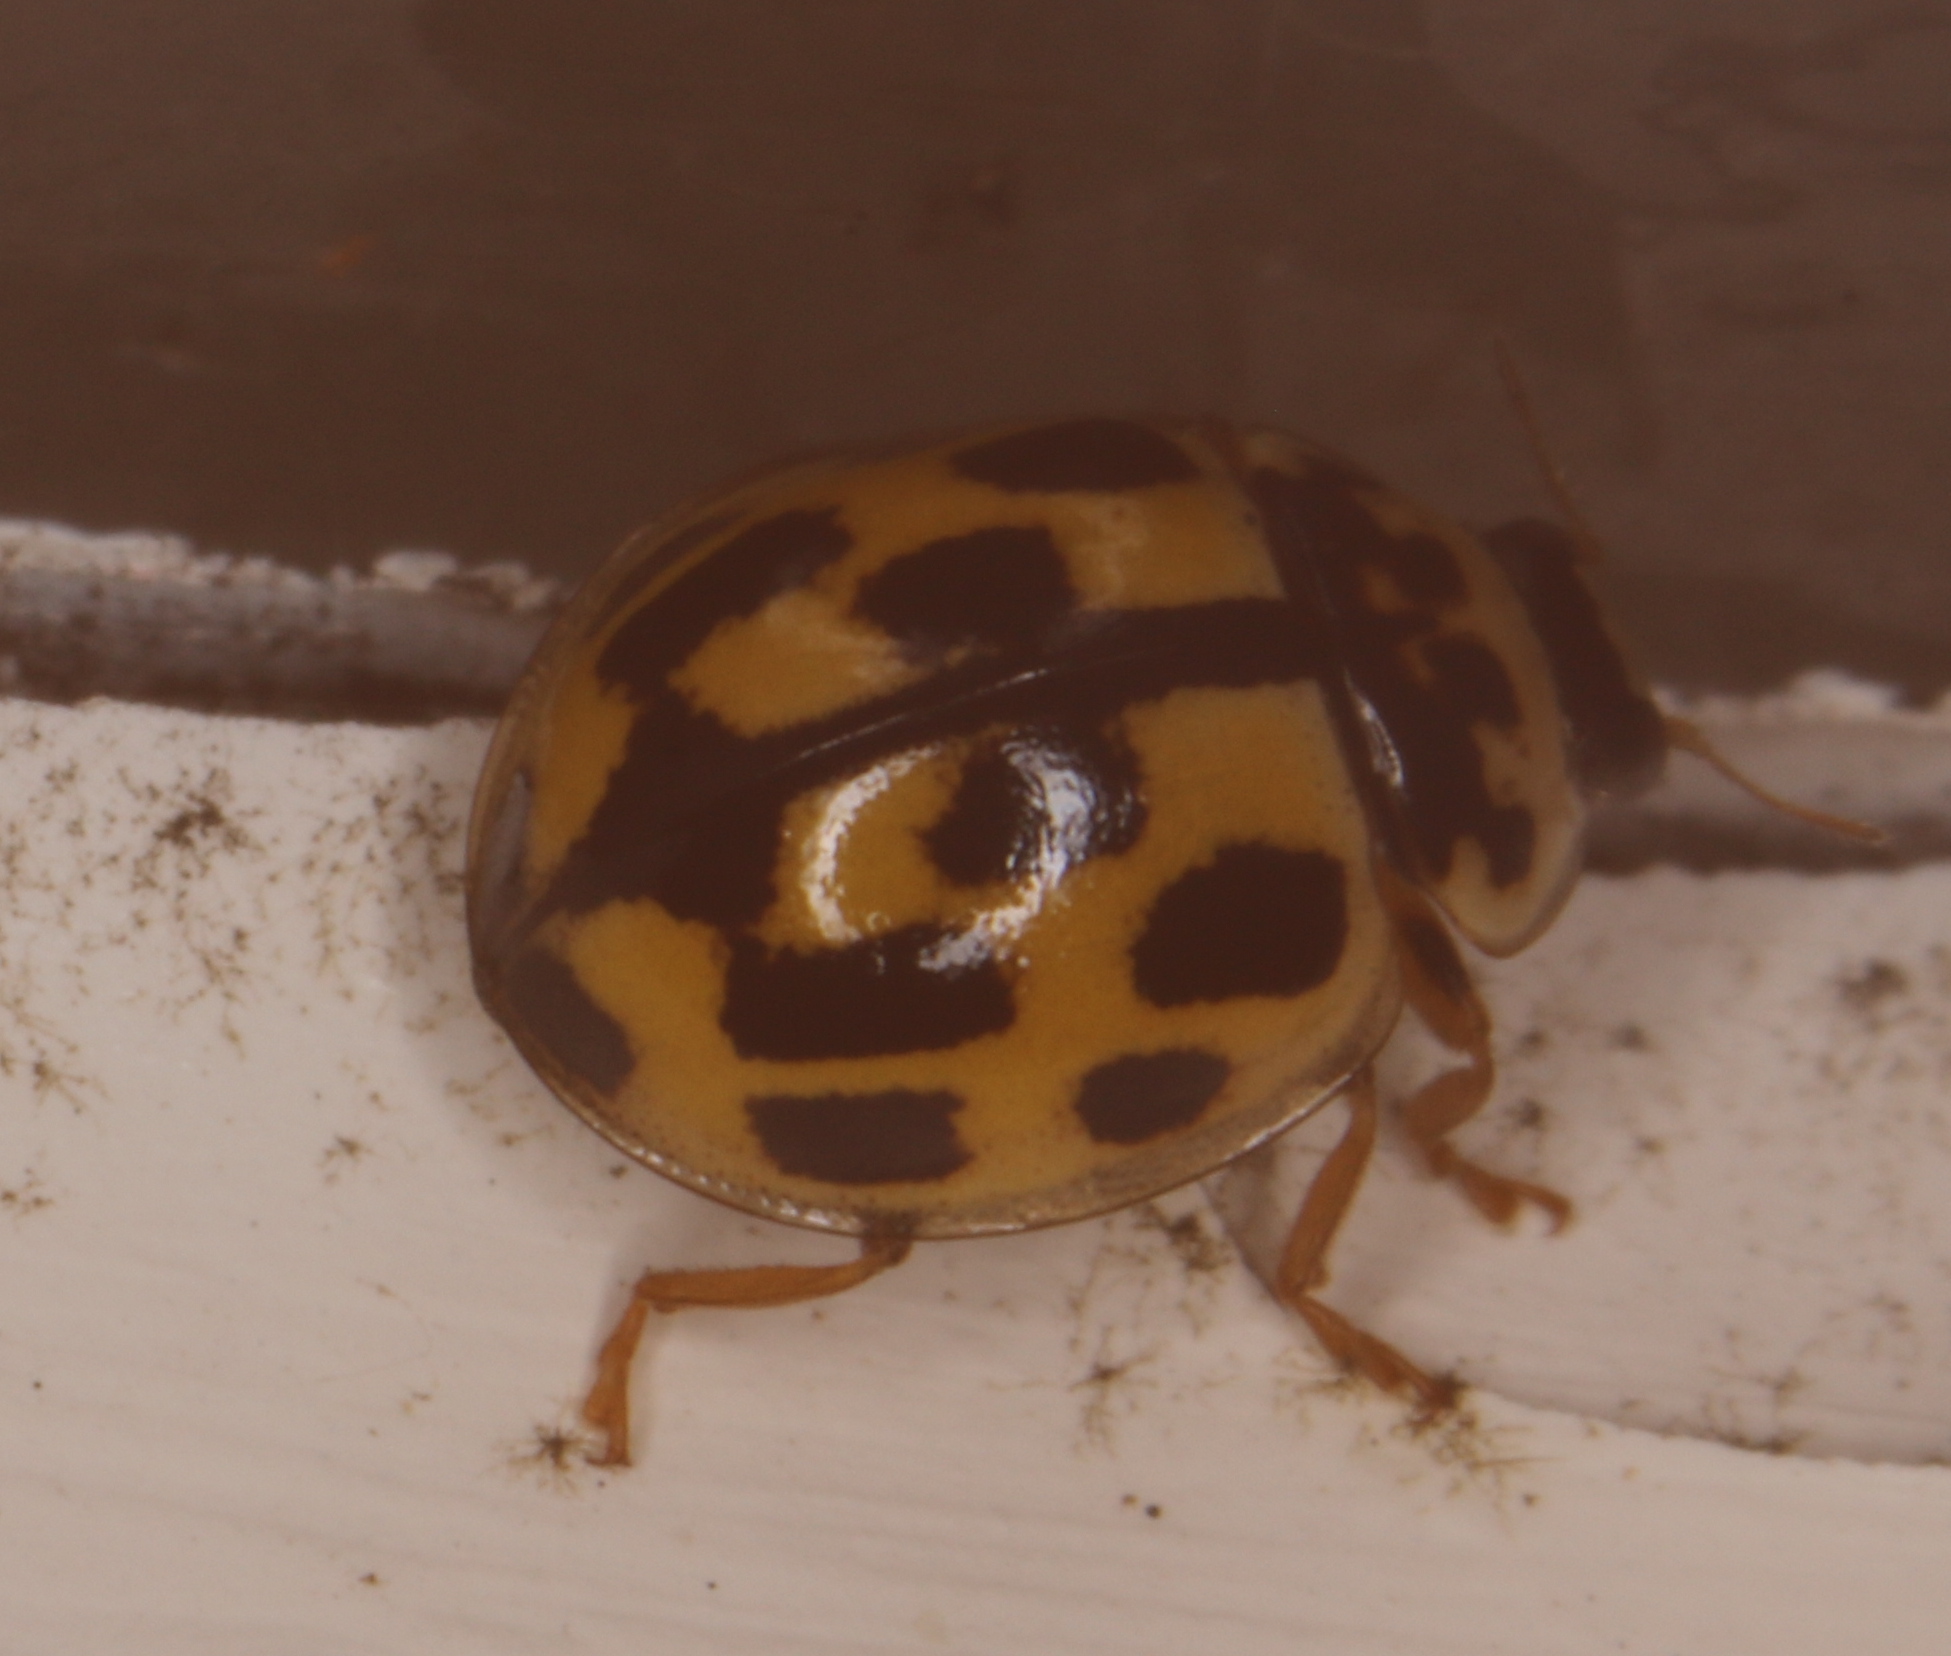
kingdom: Animalia
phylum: Arthropoda
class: Insecta
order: Coleoptera
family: Coccinellidae
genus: Propylaea
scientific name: Propylaea quatuordecimpunctata
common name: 14-spotted ladybird beetle
